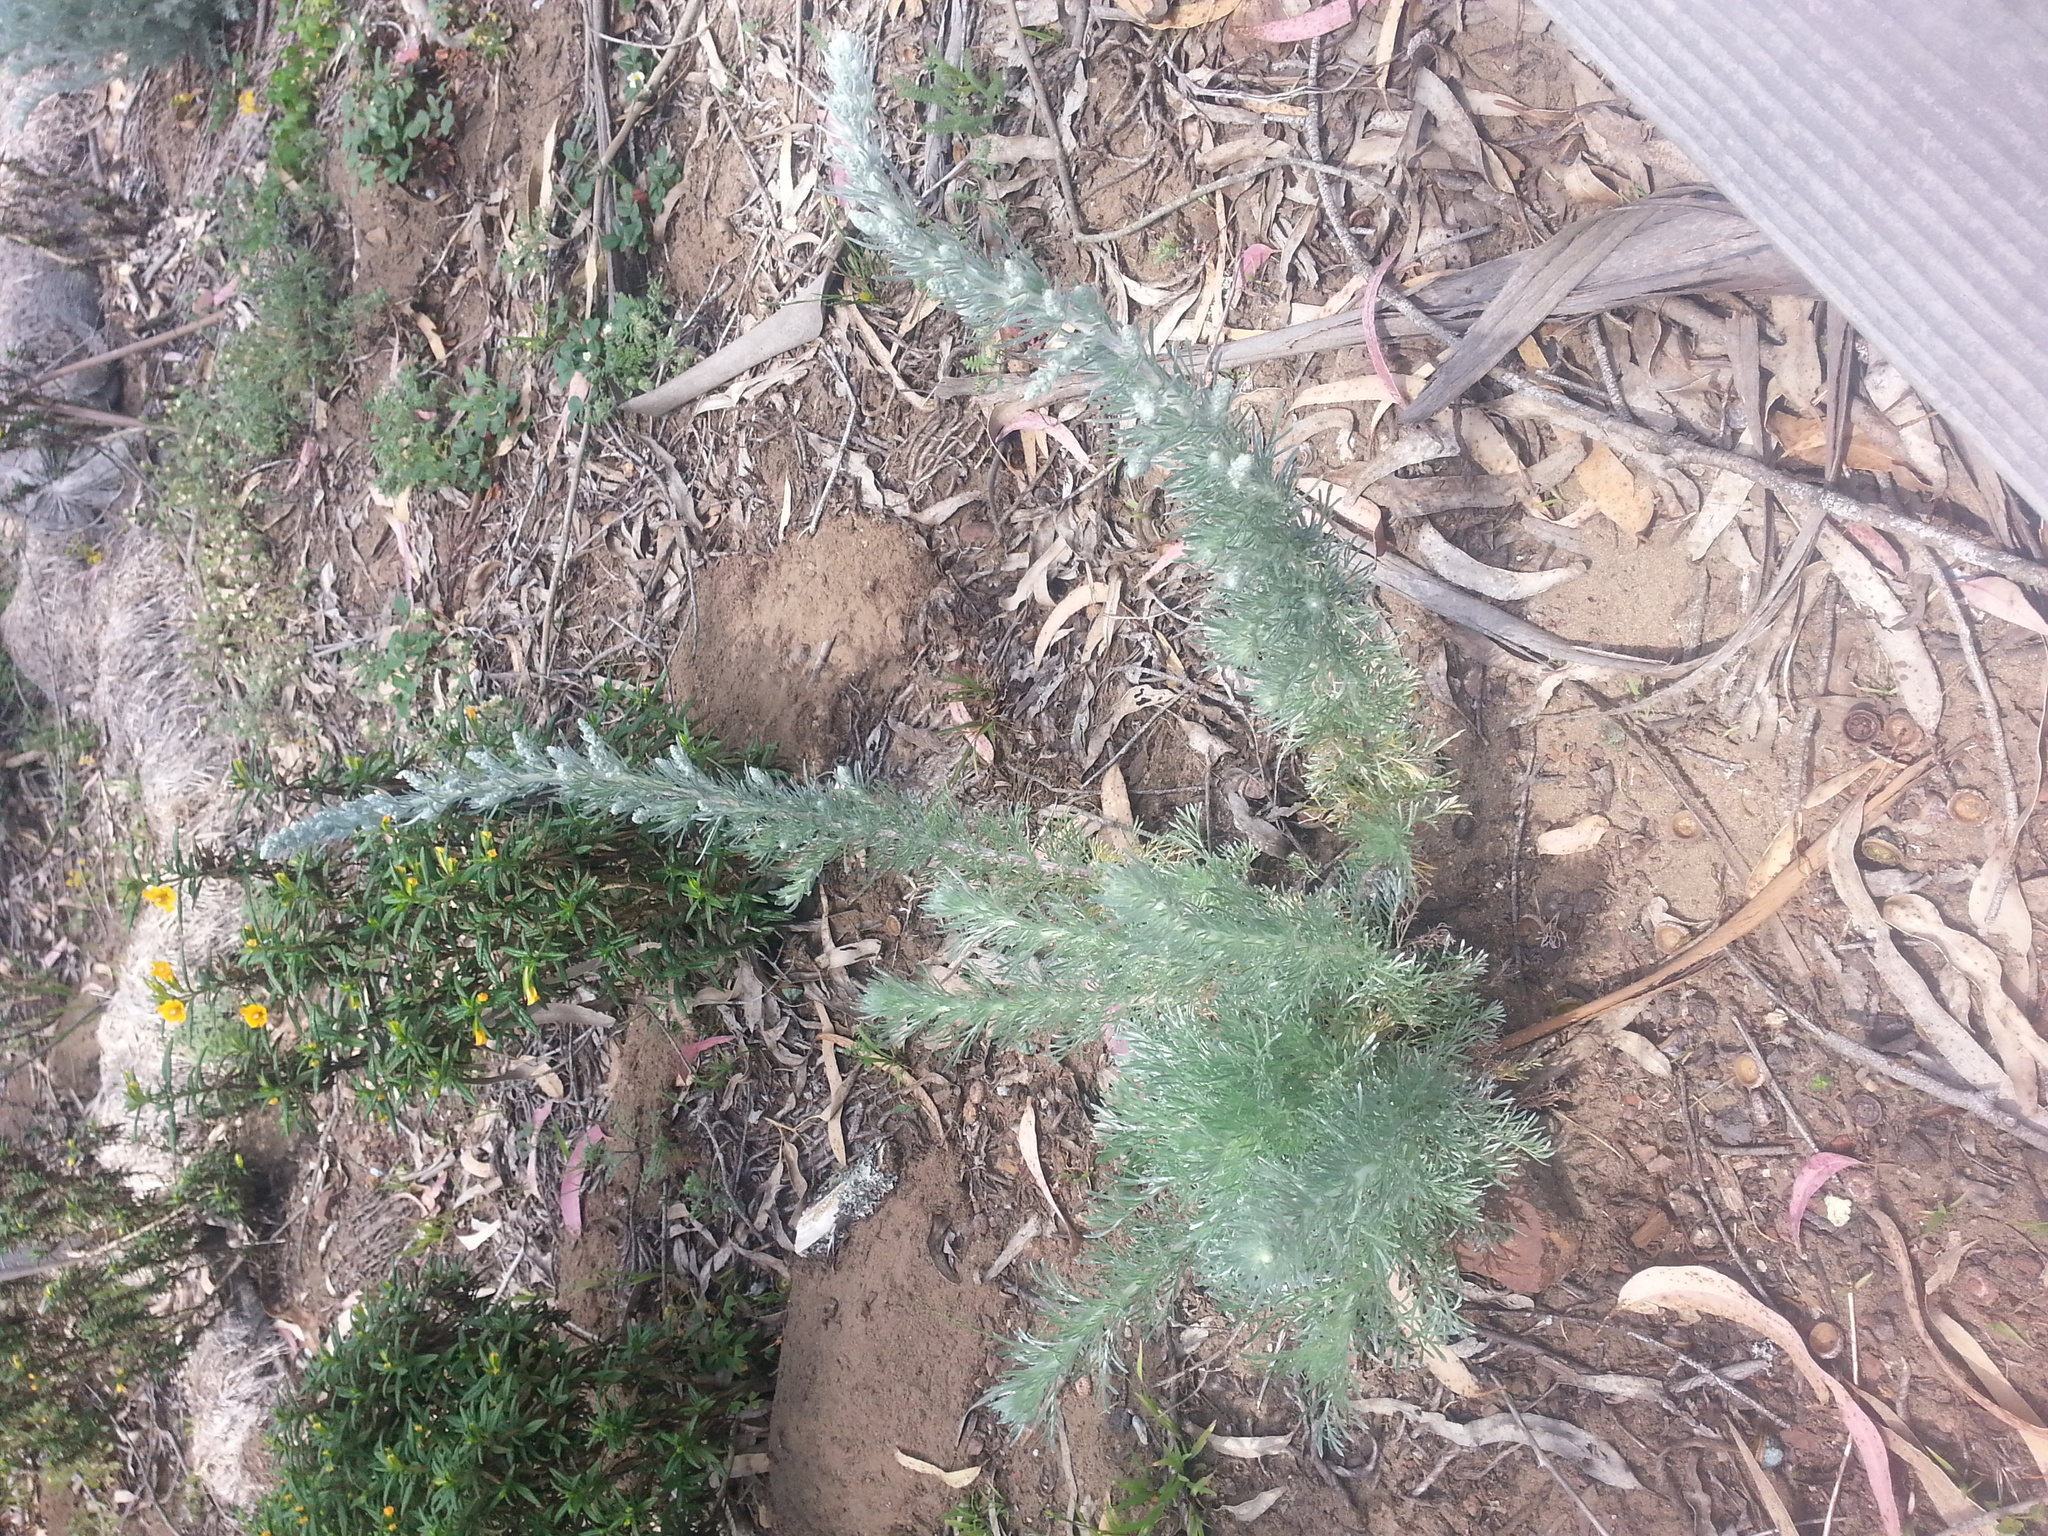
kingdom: Plantae
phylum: Tracheophyta
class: Magnoliopsida
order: Asterales
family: Asteraceae
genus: Artemisia
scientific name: Artemisia pycnocephala
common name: Coastal sagewort
